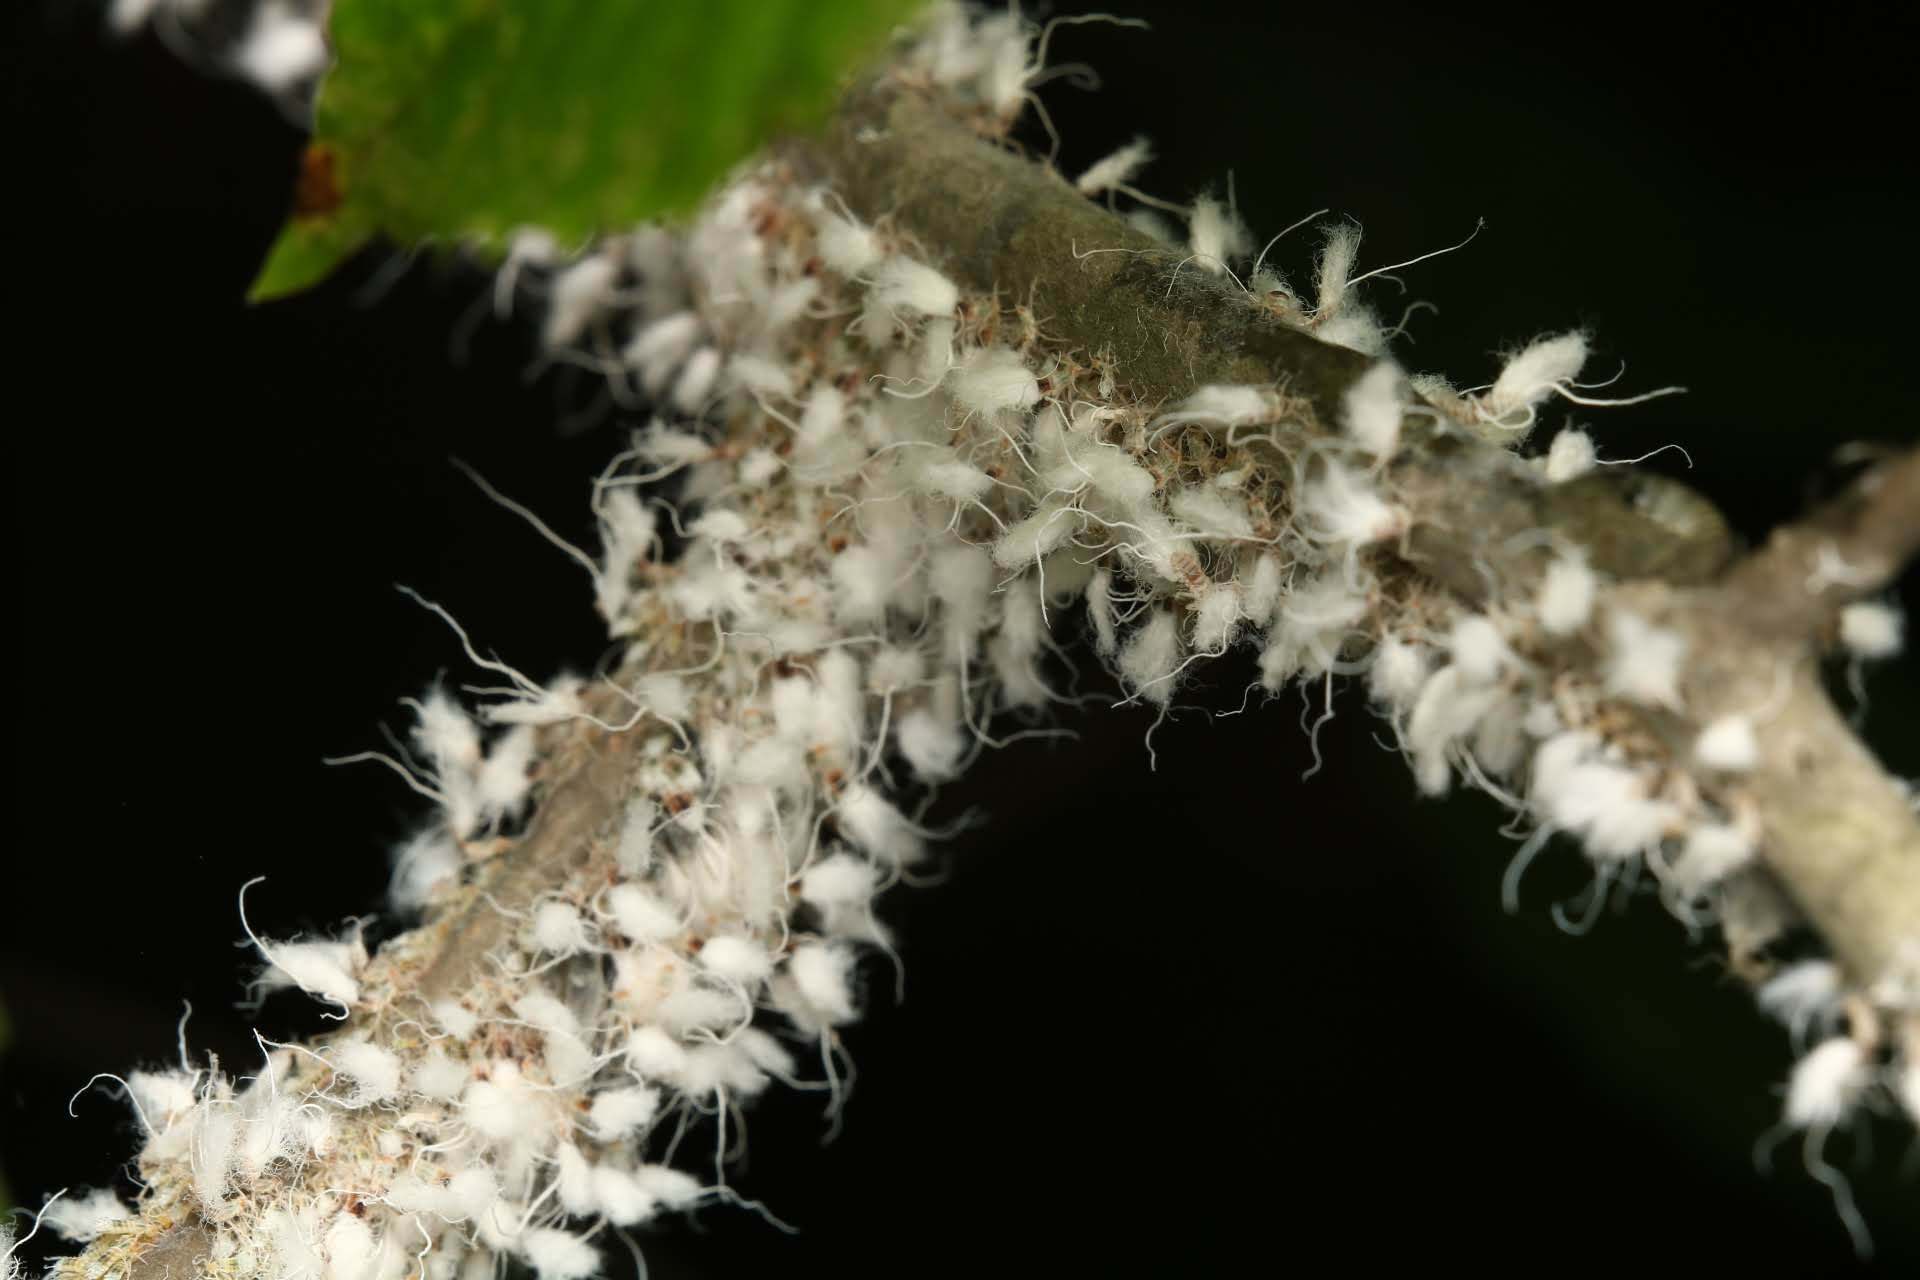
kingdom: Animalia
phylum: Arthropoda
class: Insecta
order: Hemiptera
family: Aphididae
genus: Grylloprociphilus
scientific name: Grylloprociphilus imbricator
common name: Beech blight aphid
